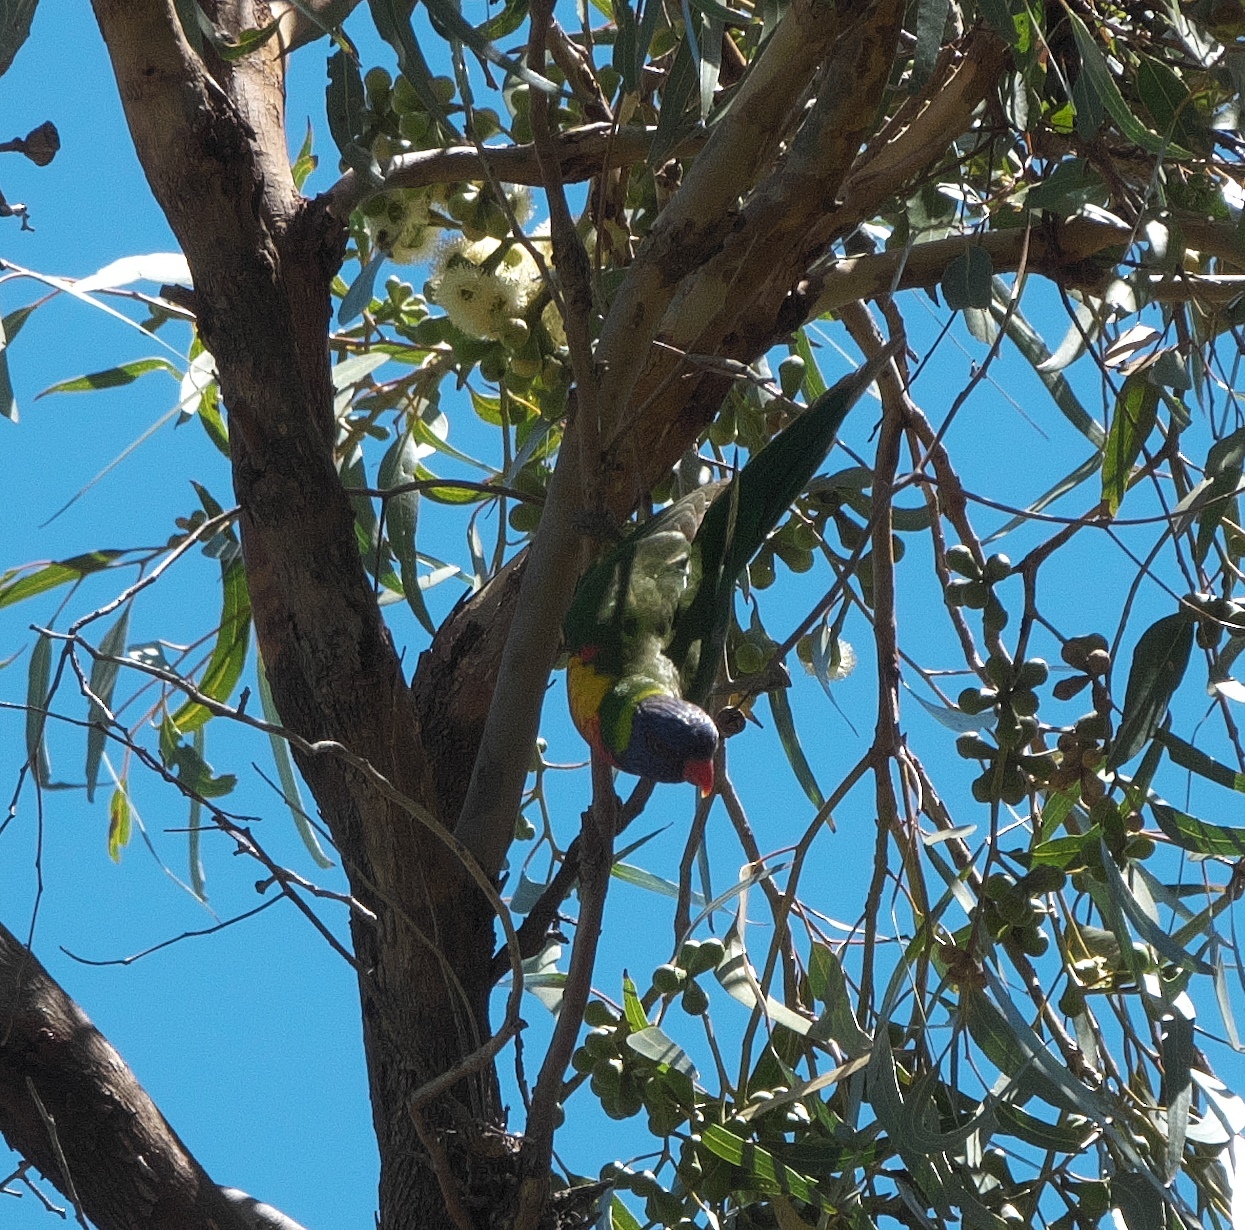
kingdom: Animalia
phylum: Chordata
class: Aves
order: Psittaciformes
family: Psittacidae
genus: Trichoglossus
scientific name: Trichoglossus haematodus
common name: Coconut lorikeet
